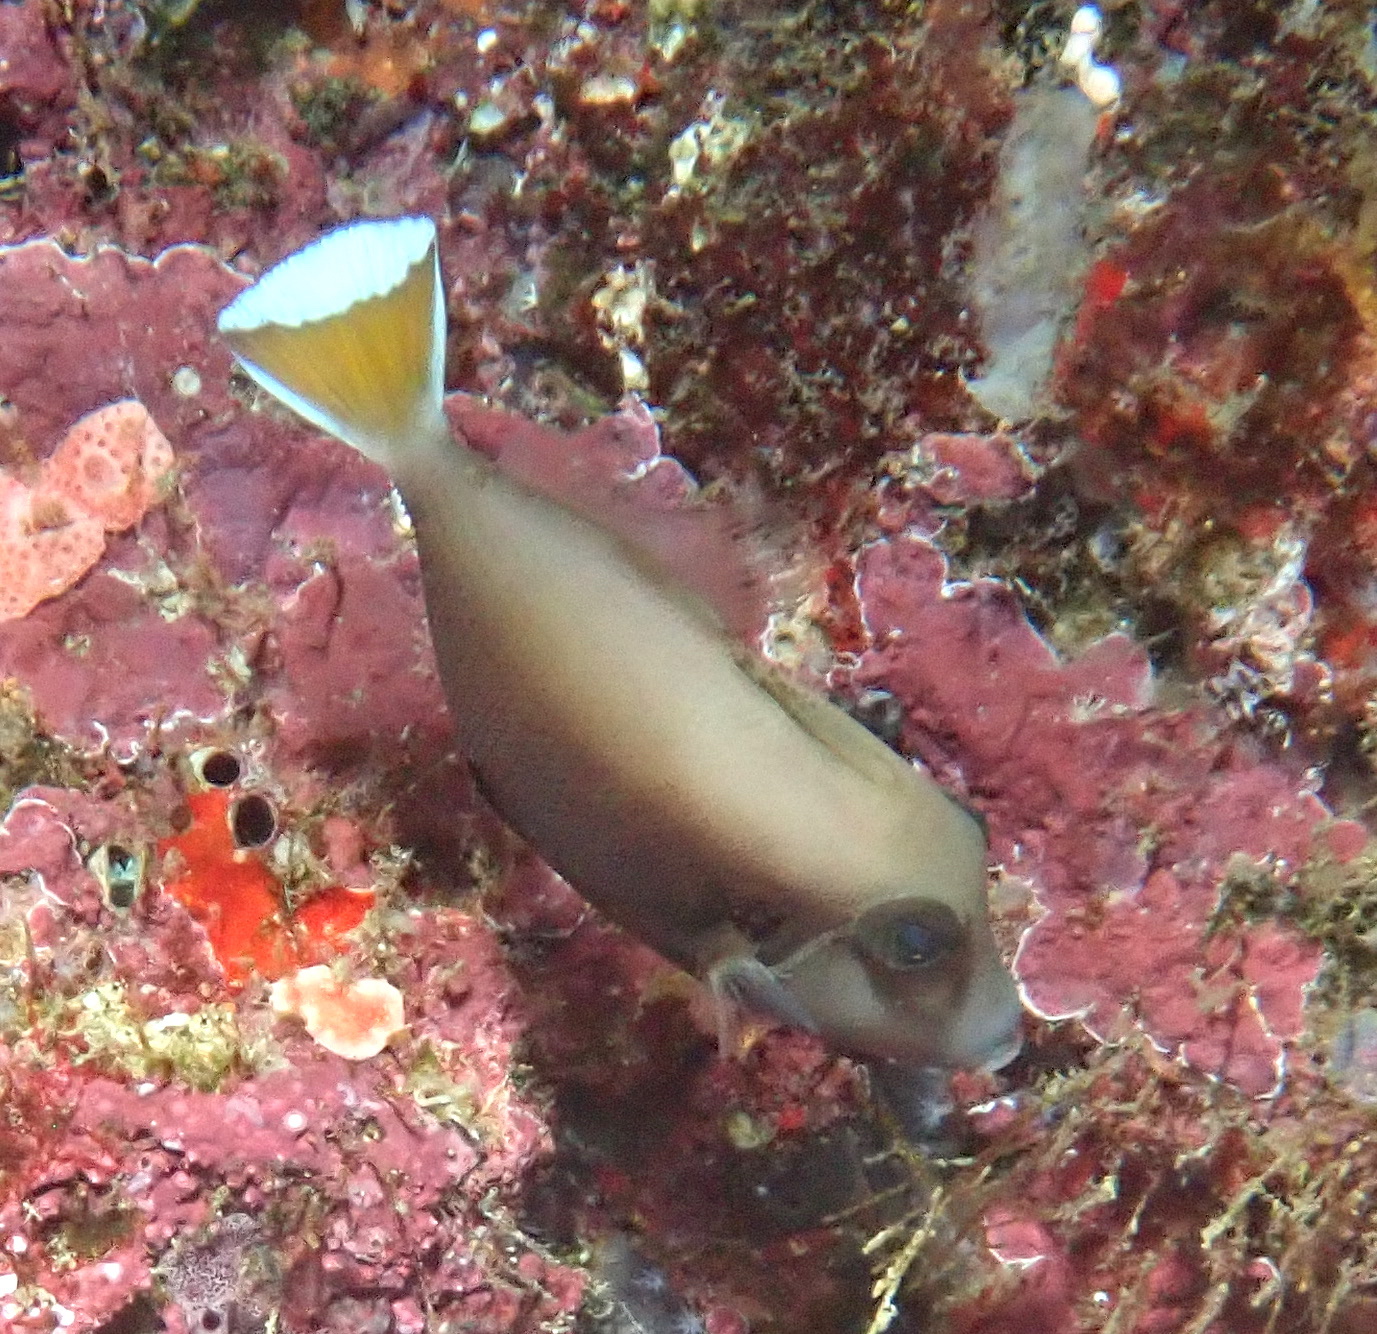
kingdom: Animalia
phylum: Chordata
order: Tetraodontiformes
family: Balistidae
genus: Sufflamen
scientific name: Sufflamen chrysopterum
